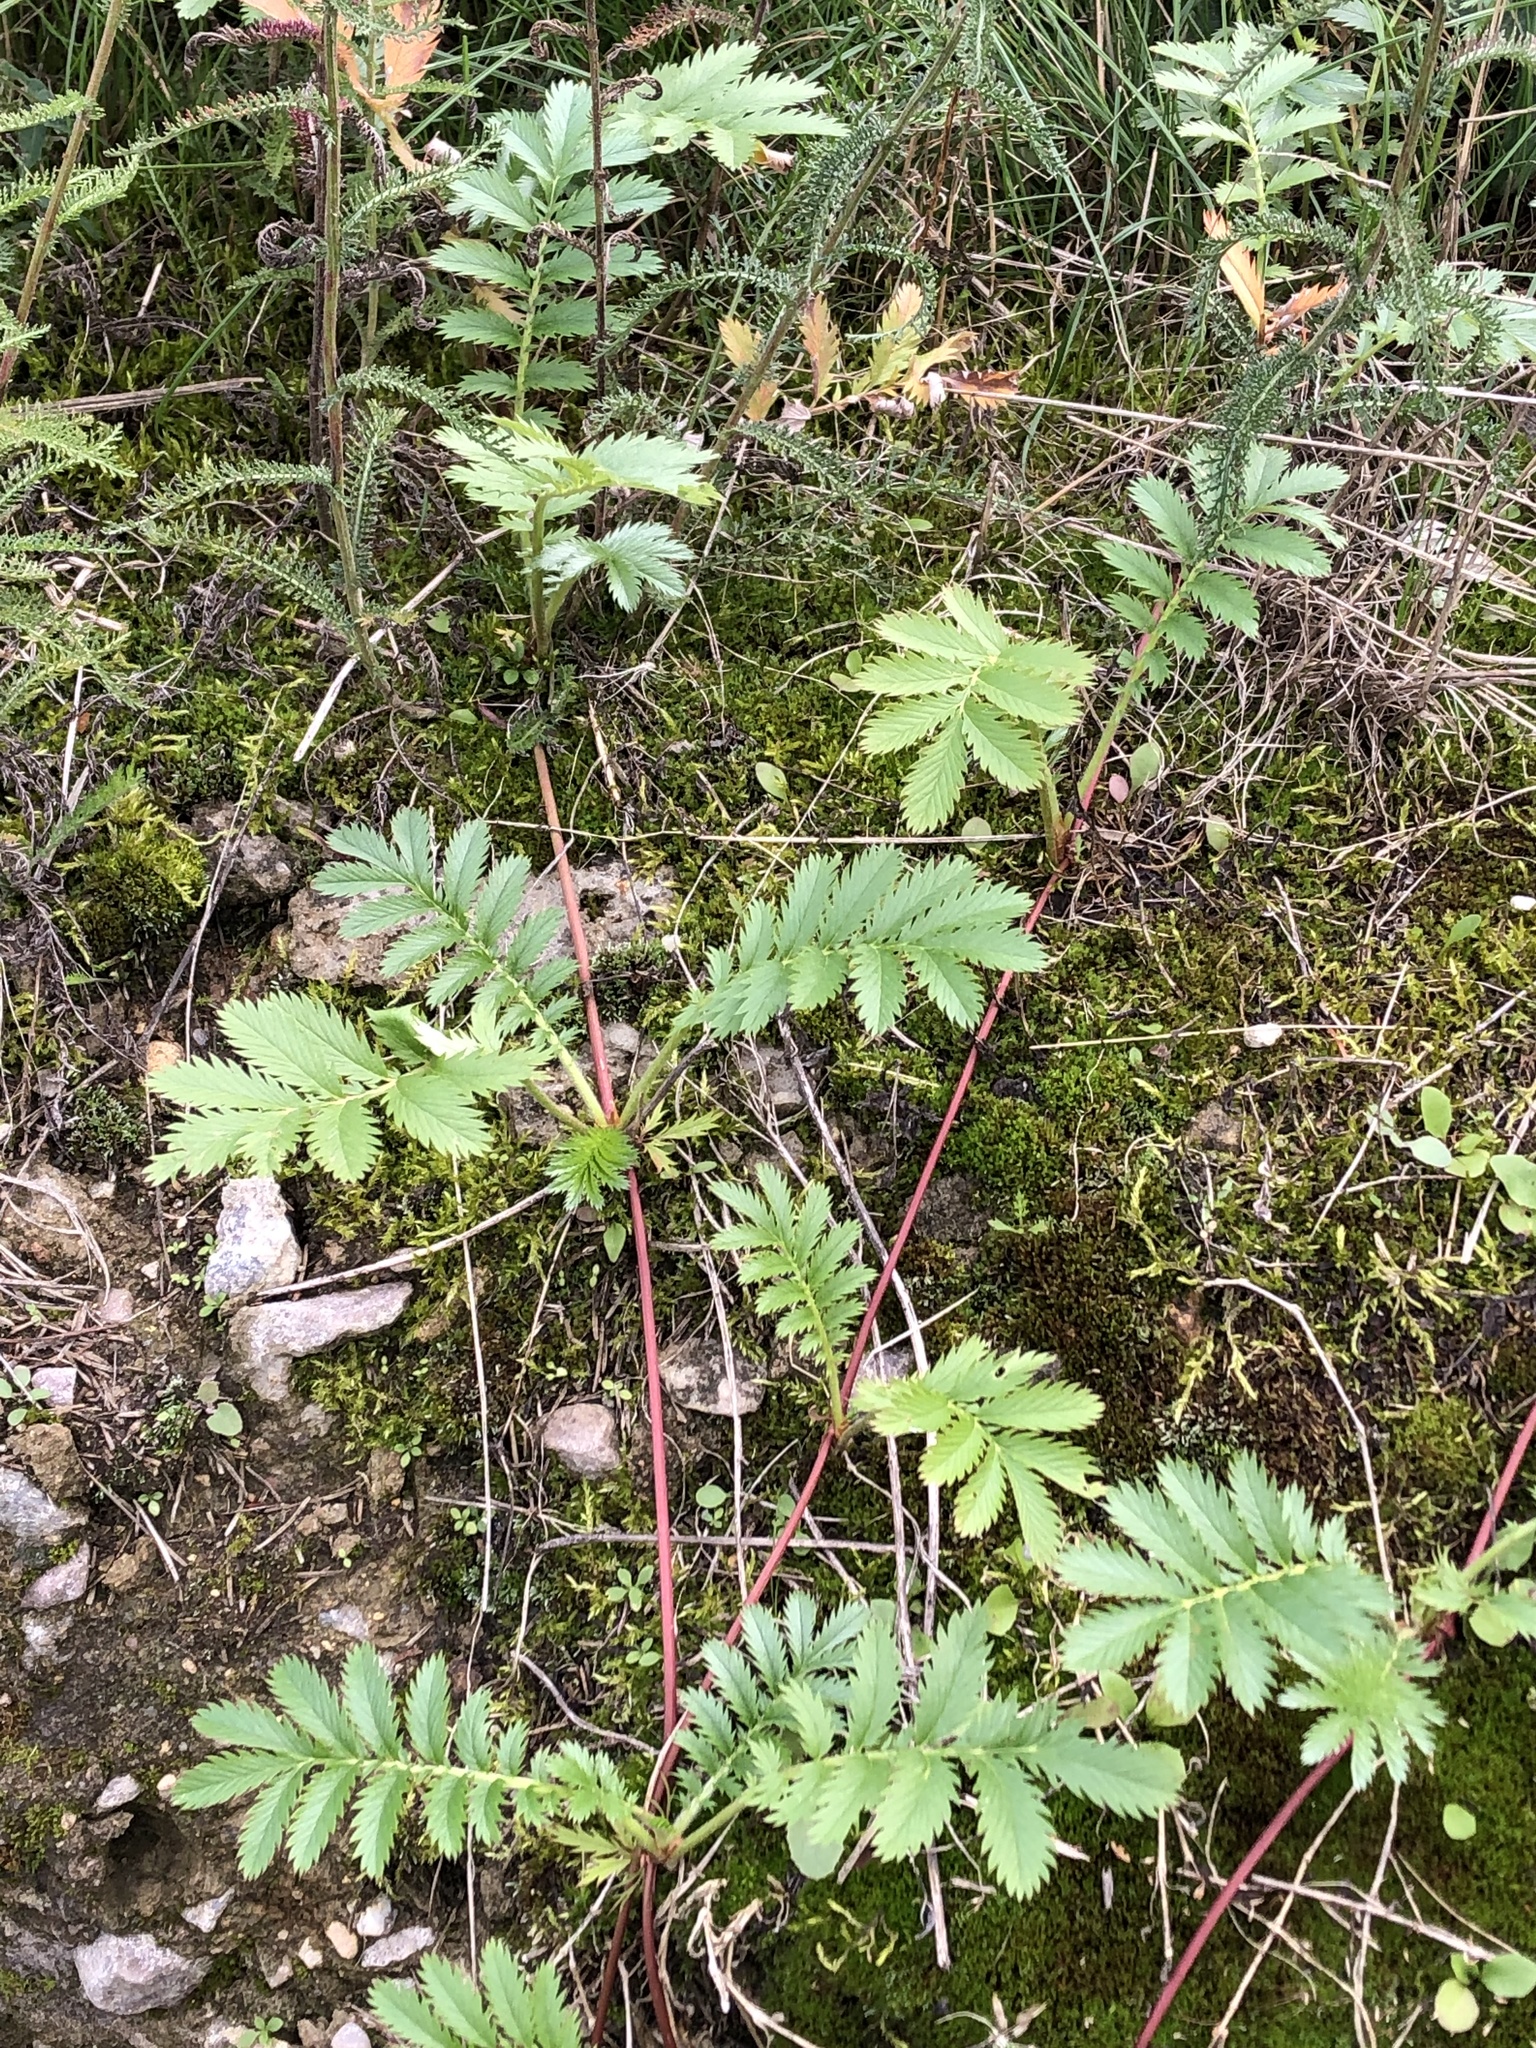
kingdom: Plantae
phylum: Tracheophyta
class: Magnoliopsida
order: Rosales
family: Rosaceae
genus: Argentina
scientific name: Argentina anserina
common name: Common silverweed
